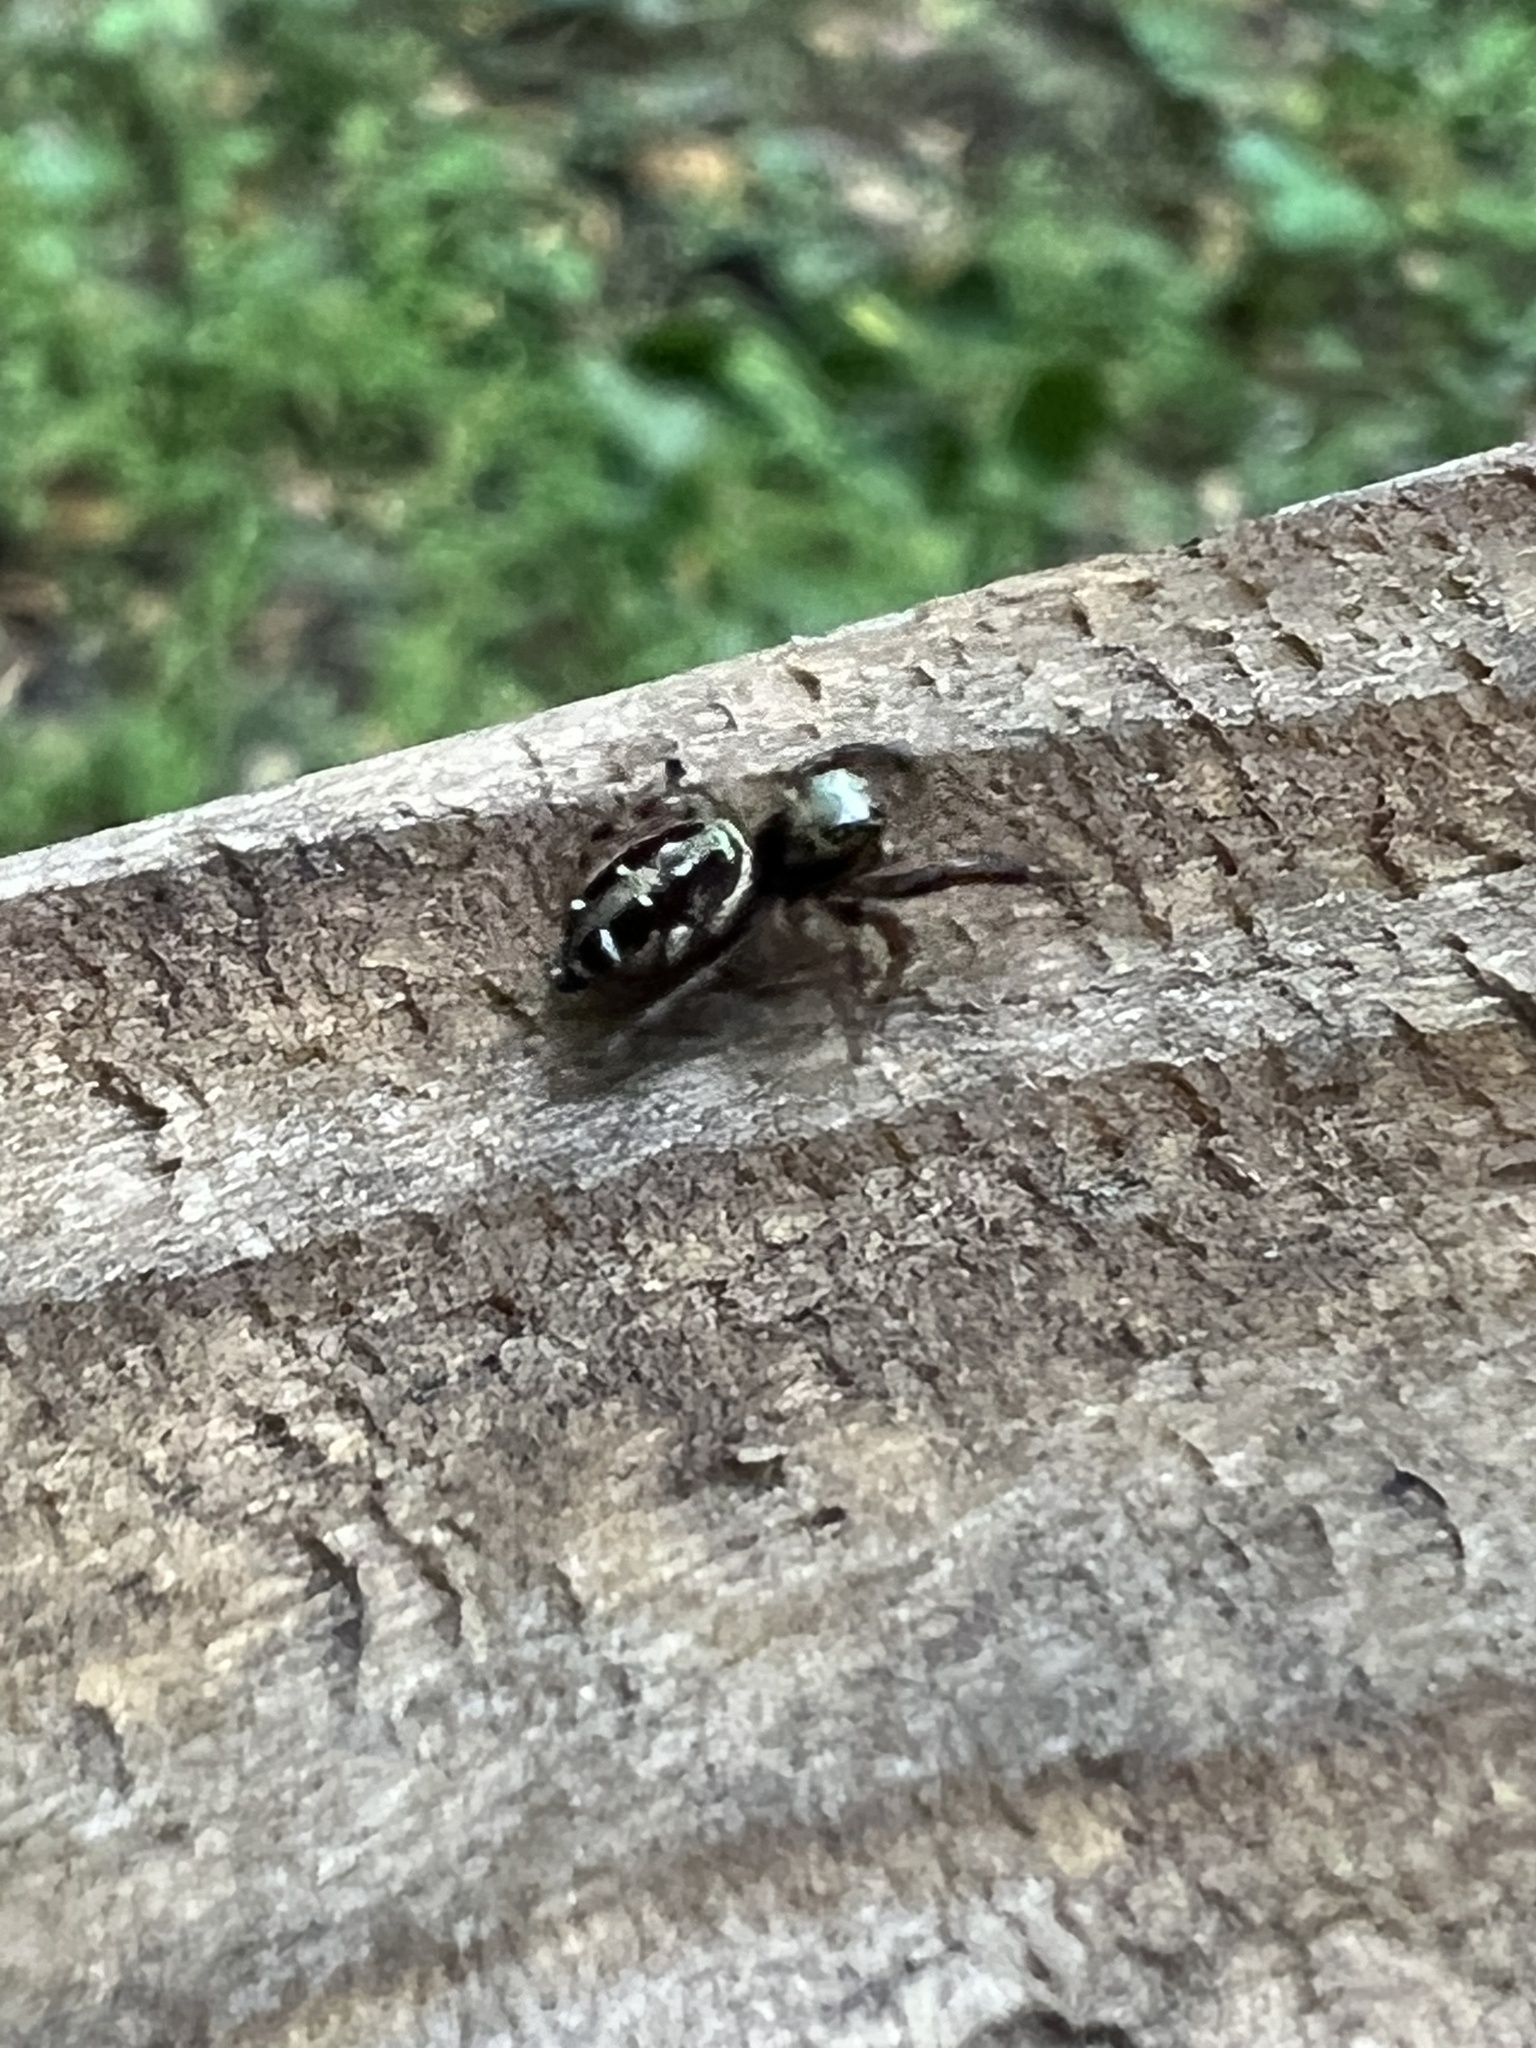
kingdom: Animalia
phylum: Arthropoda
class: Arachnida
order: Araneae
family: Salticidae
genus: Paraphidippus
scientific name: Paraphidippus aurantius
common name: Jumping spiders
